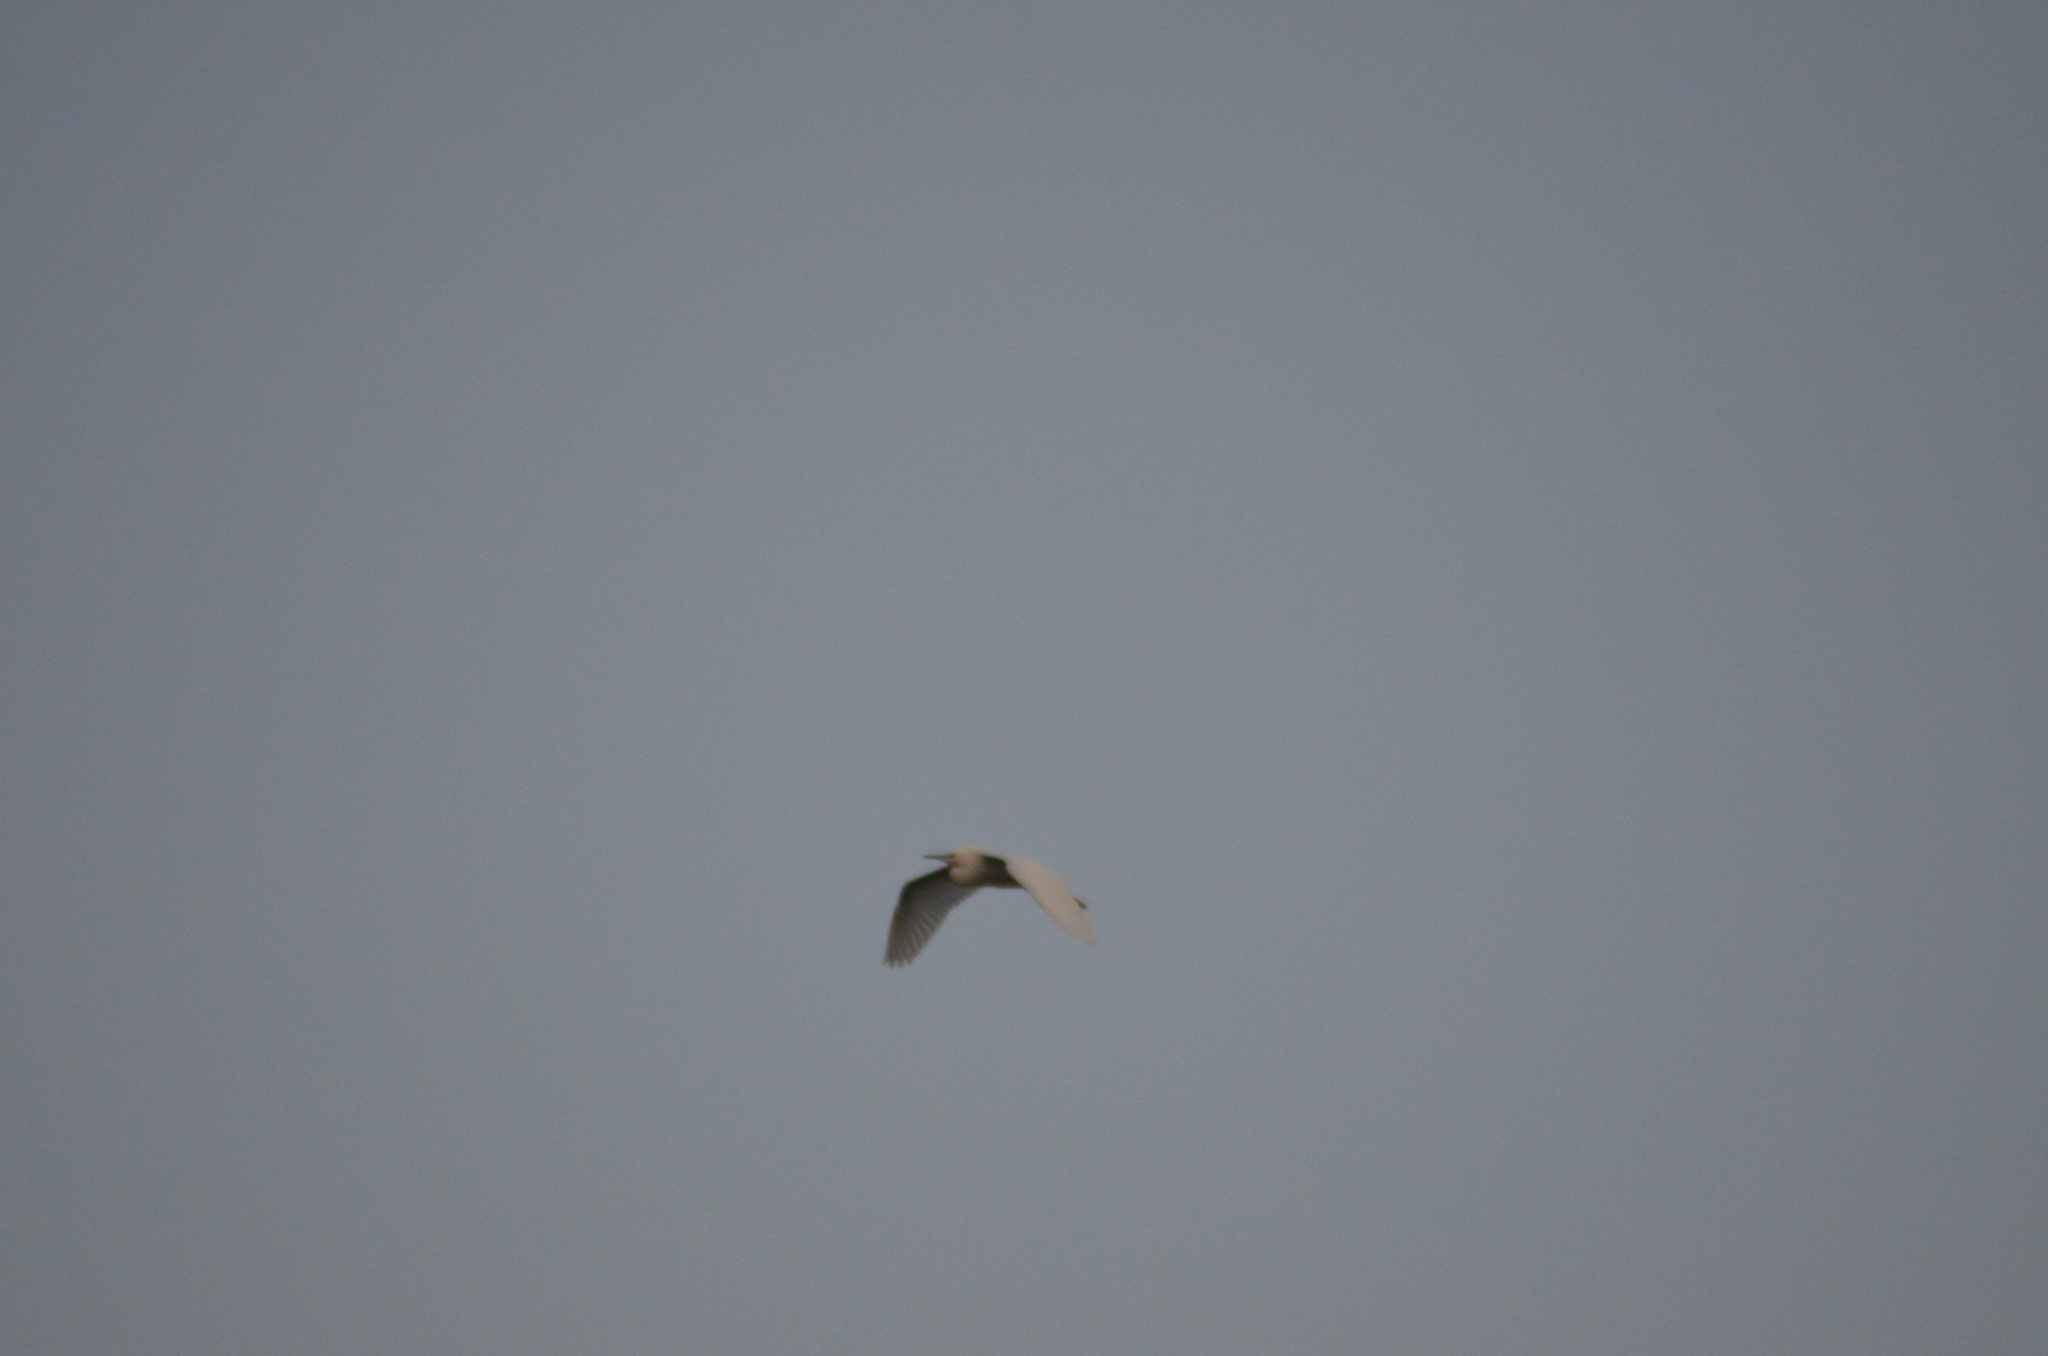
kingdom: Animalia
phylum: Chordata
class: Aves
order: Pelecaniformes
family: Ardeidae
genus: Bubulcus
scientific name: Bubulcus ibis
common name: Cattle egret
